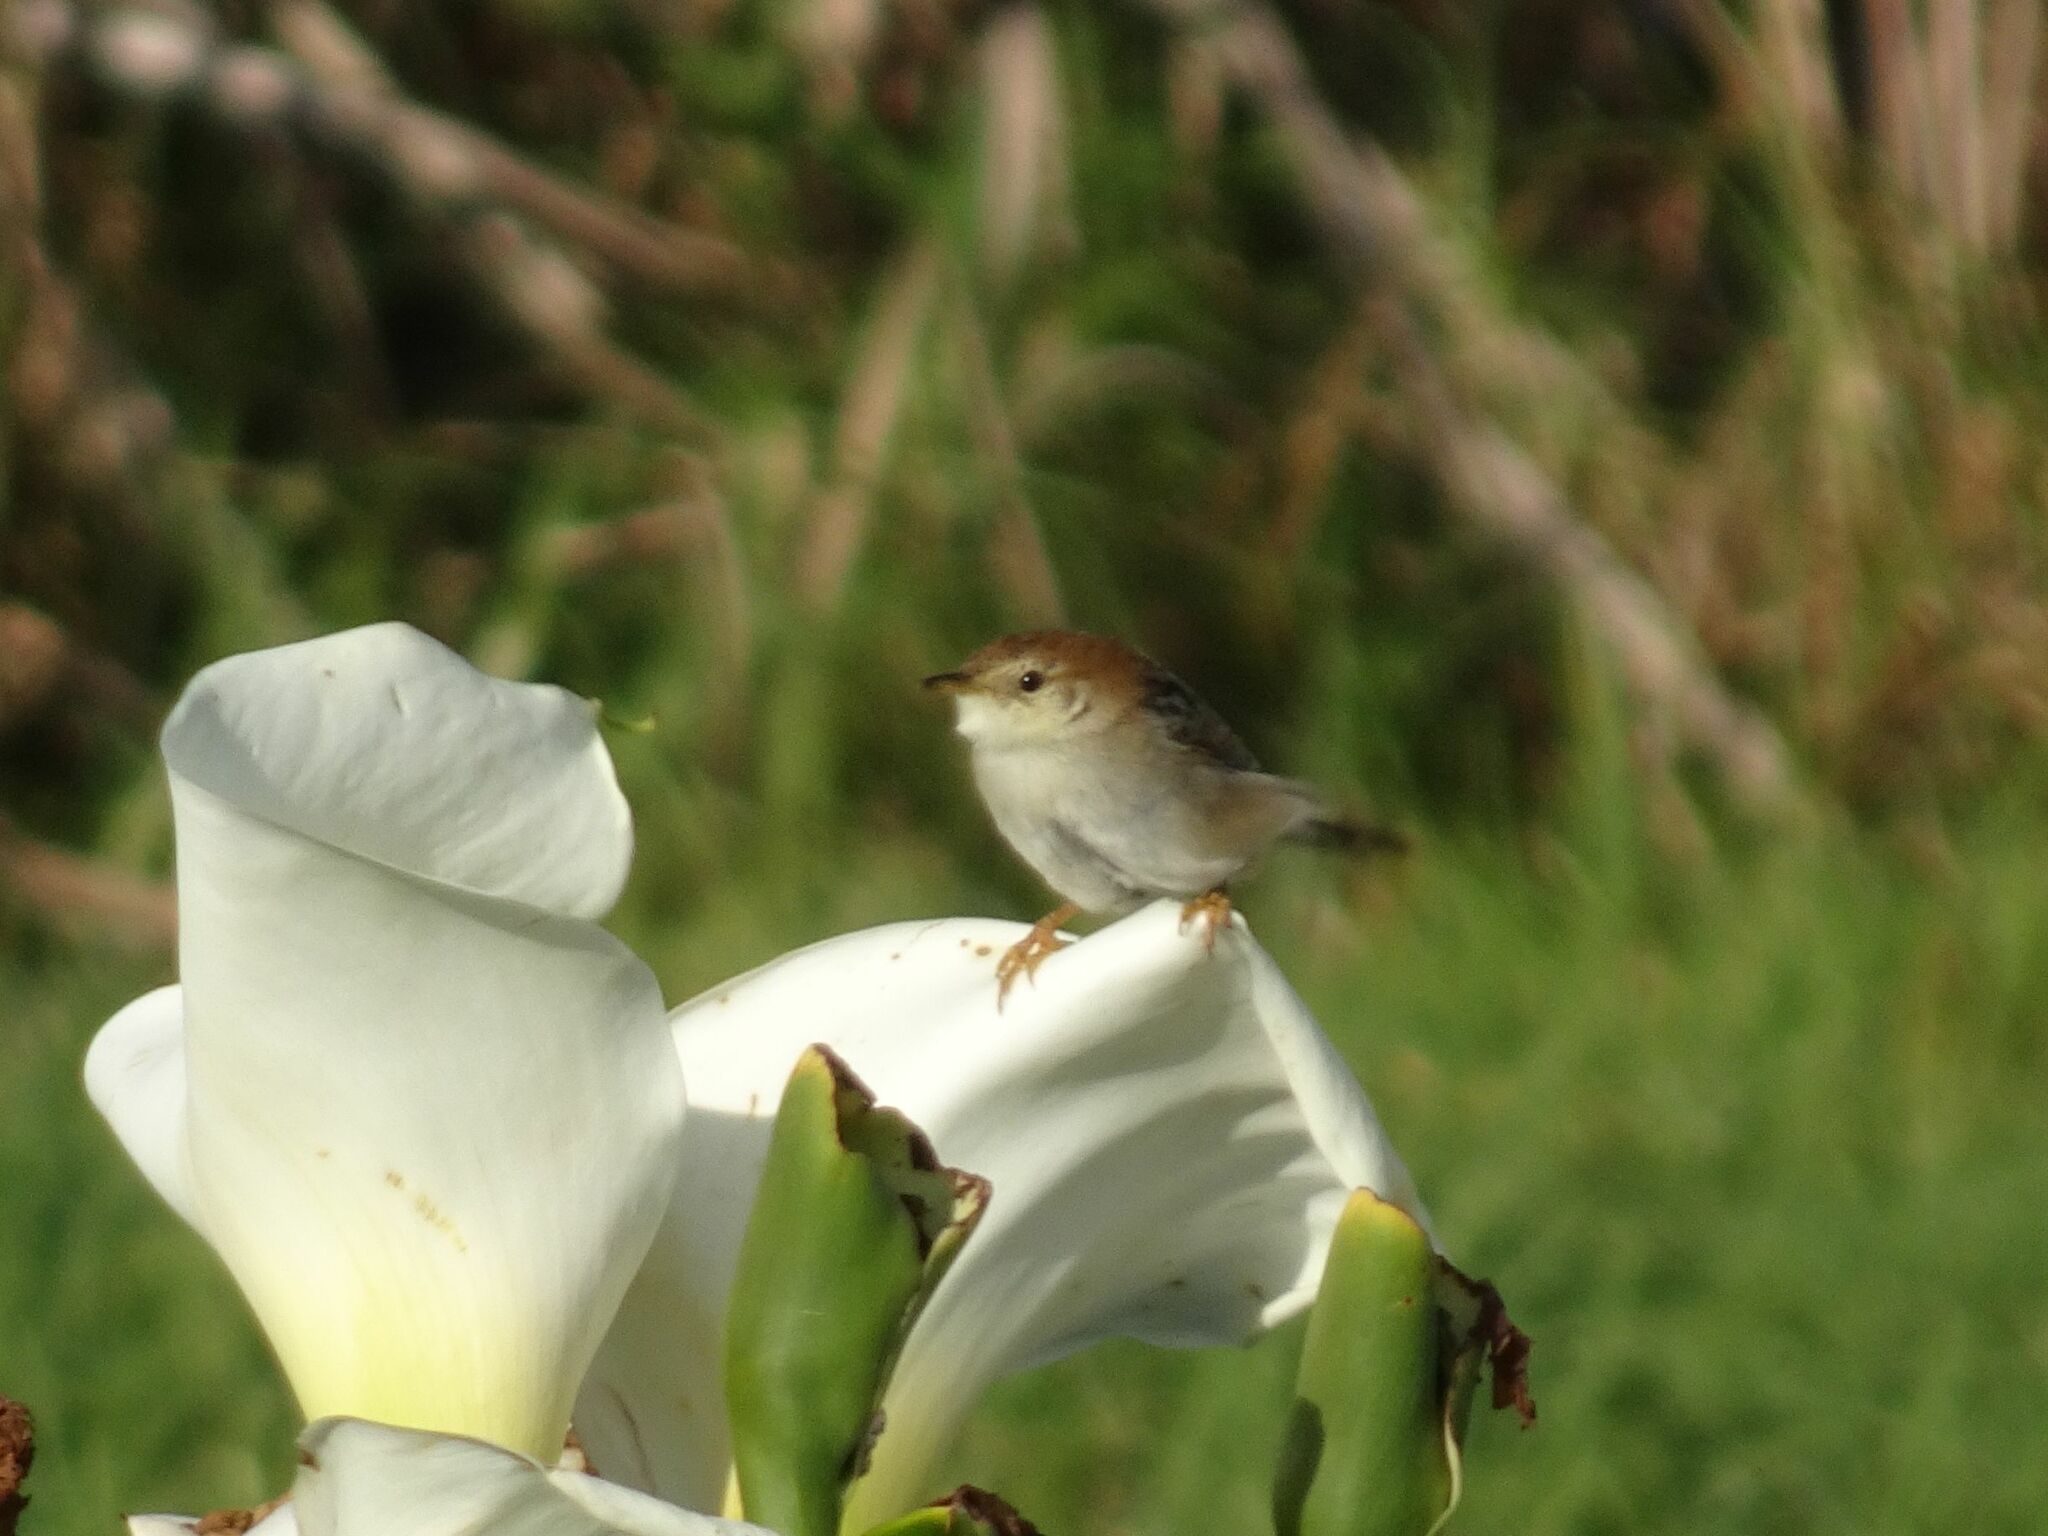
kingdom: Animalia
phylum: Chordata
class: Aves
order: Passeriformes
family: Cisticolidae
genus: Cisticola
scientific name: Cisticola tinniens
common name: Levaillant's cisticola
